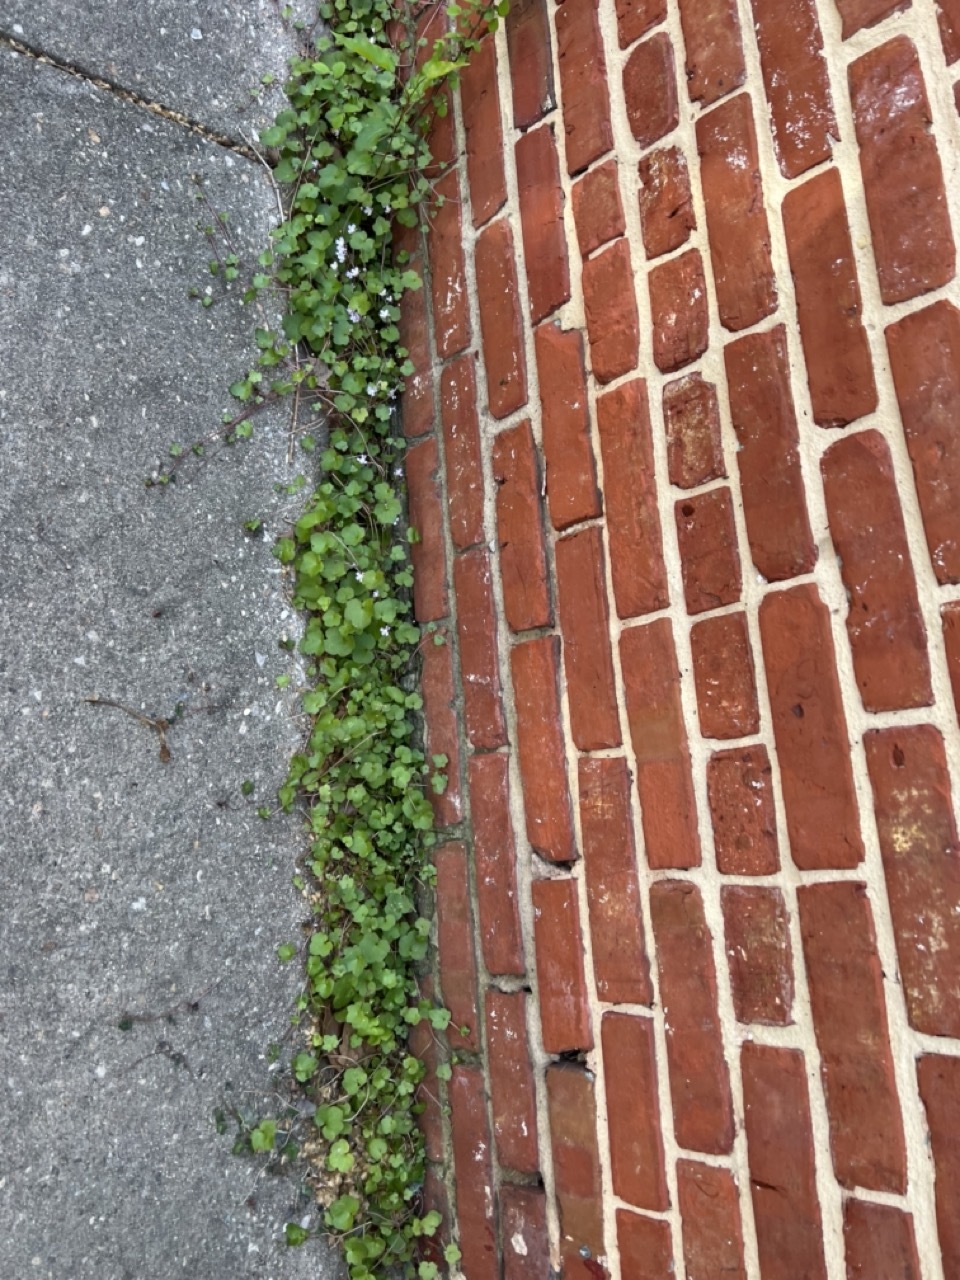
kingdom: Plantae
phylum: Tracheophyta
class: Magnoliopsida
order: Lamiales
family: Plantaginaceae
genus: Cymbalaria
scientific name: Cymbalaria muralis
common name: Ivy-leaved toadflax
